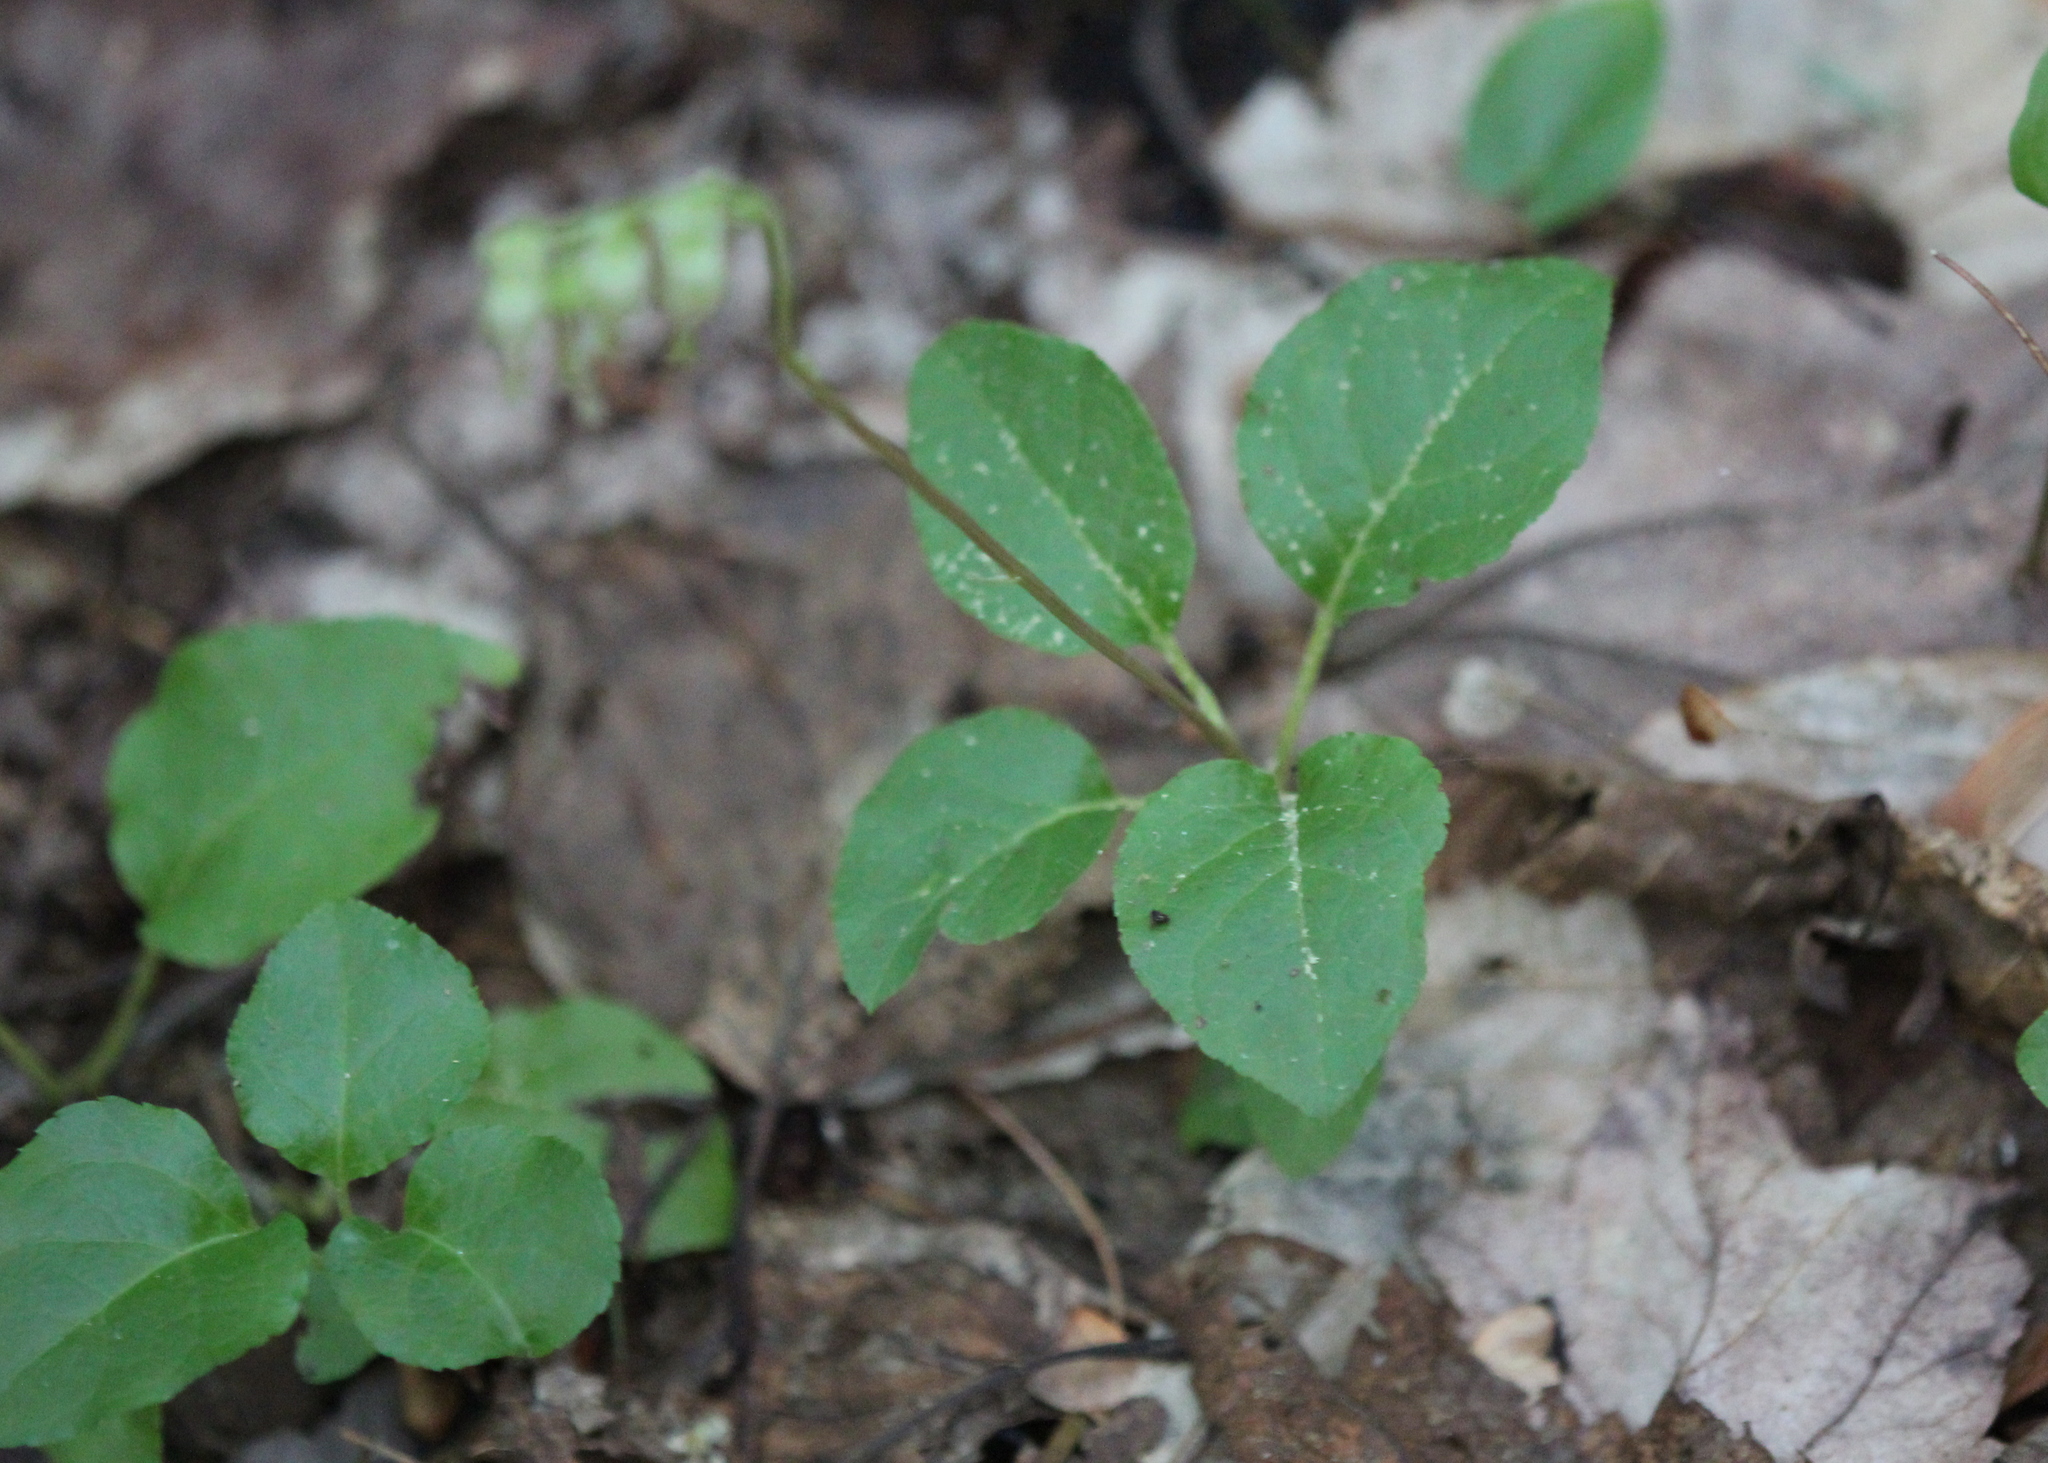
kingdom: Plantae
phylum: Tracheophyta
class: Magnoliopsida
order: Ericales
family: Ericaceae
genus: Orthilia
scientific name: Orthilia secunda
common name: One-sided orthilia
